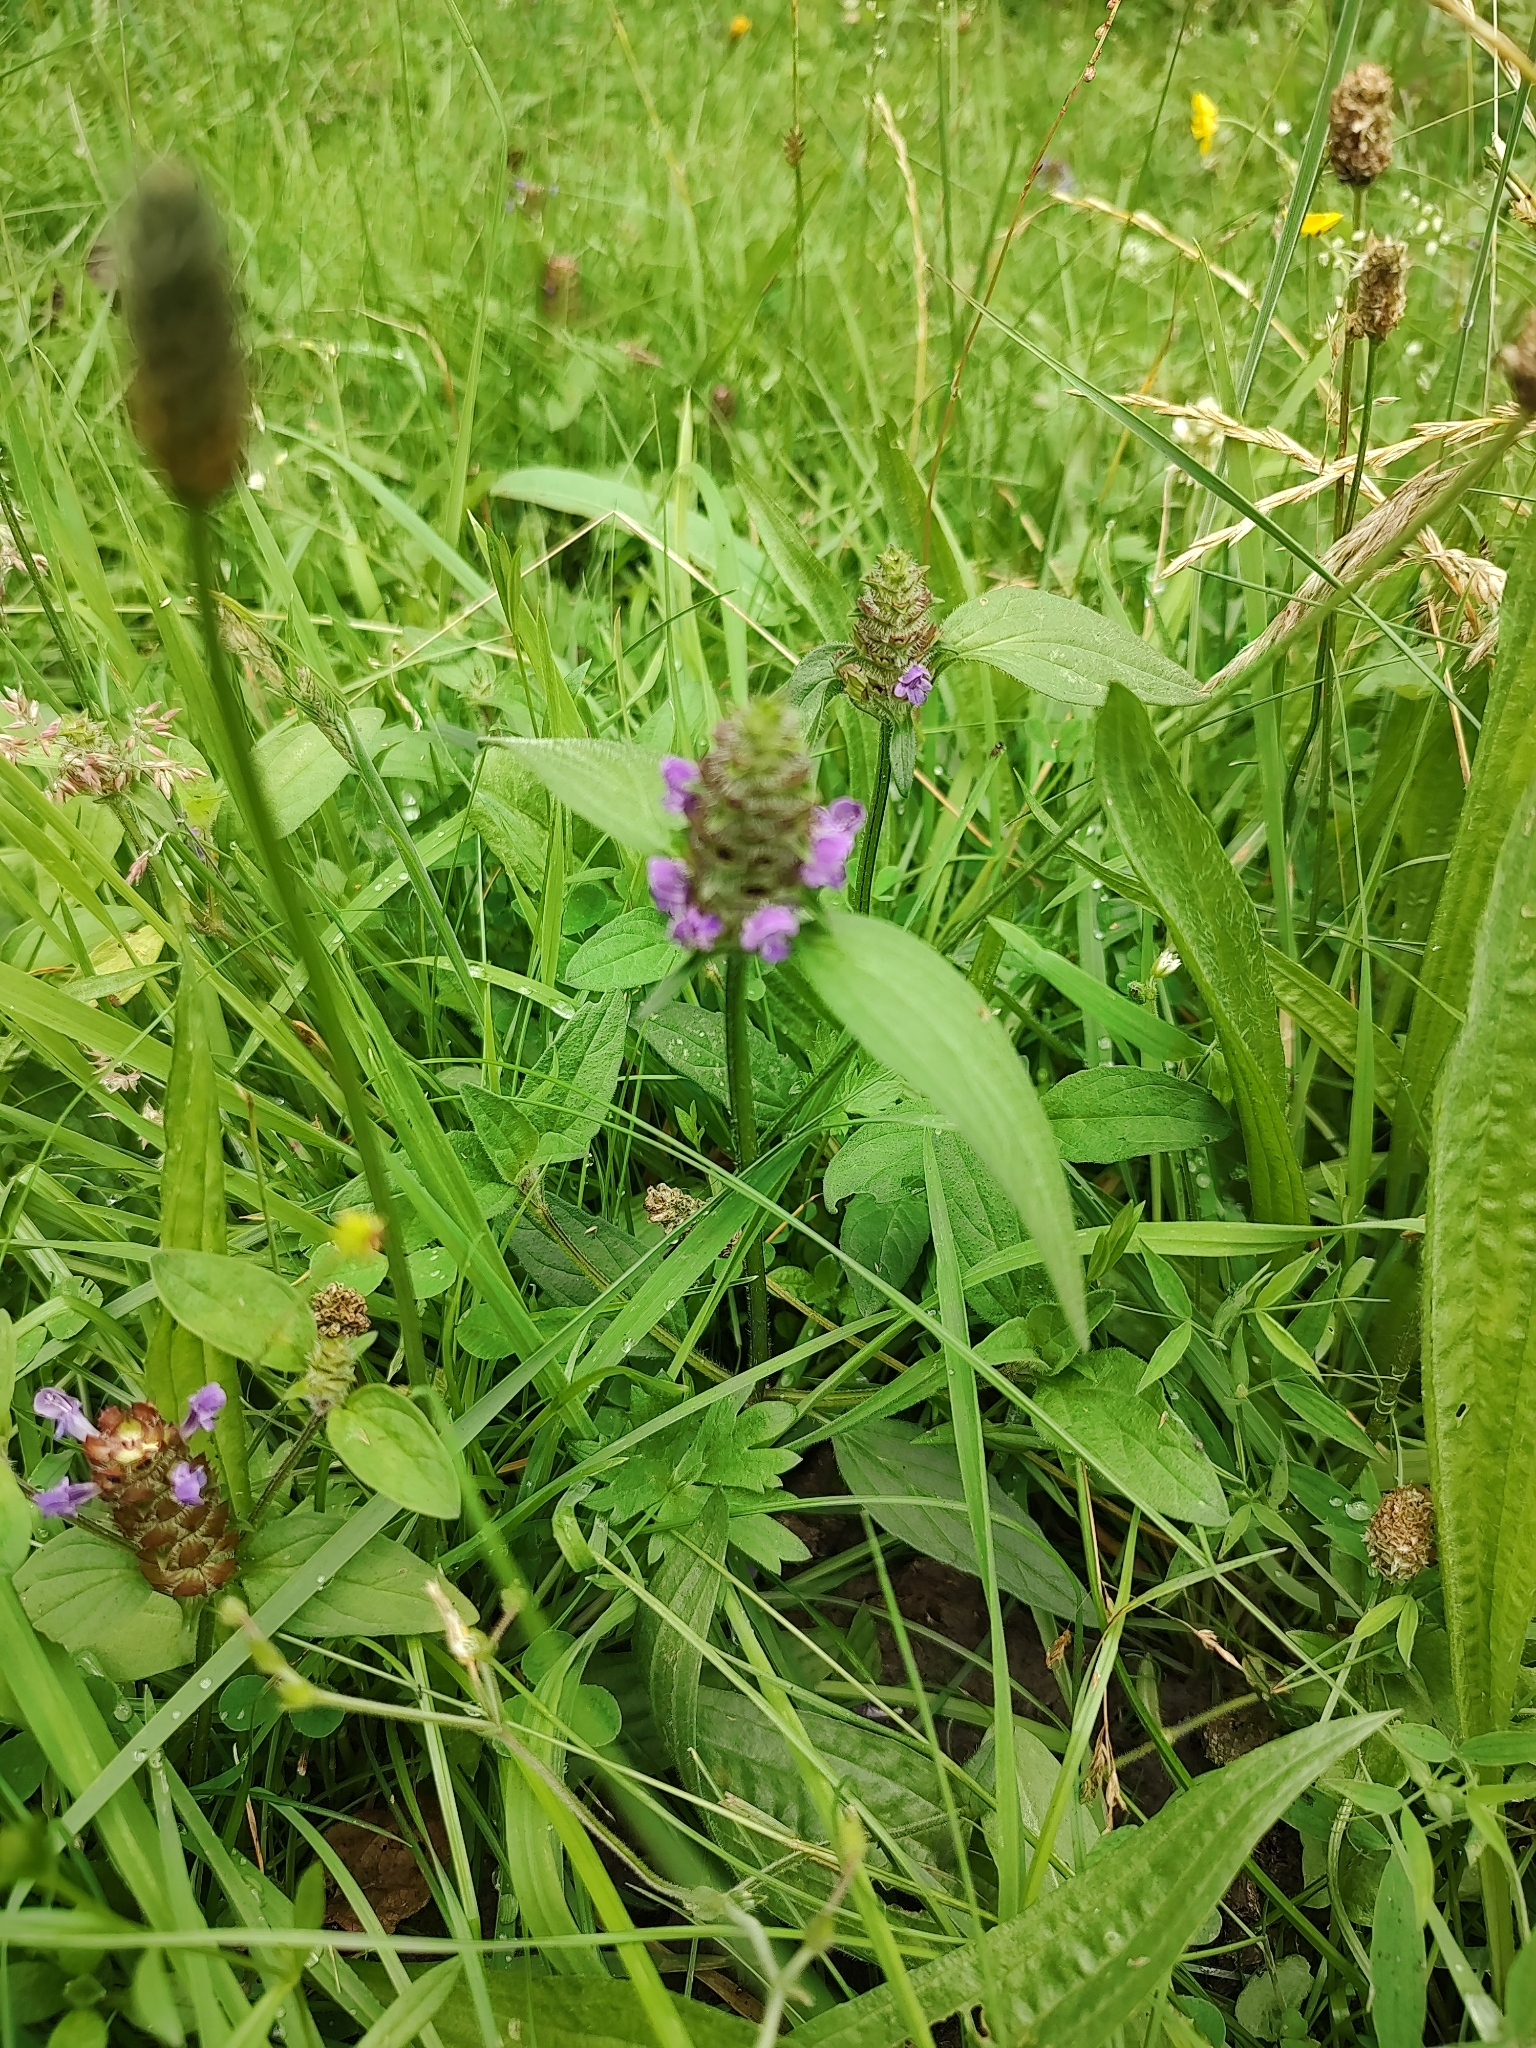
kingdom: Plantae
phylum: Tracheophyta
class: Magnoliopsida
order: Lamiales
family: Lamiaceae
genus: Prunella
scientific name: Prunella vulgaris
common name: Heal-all
